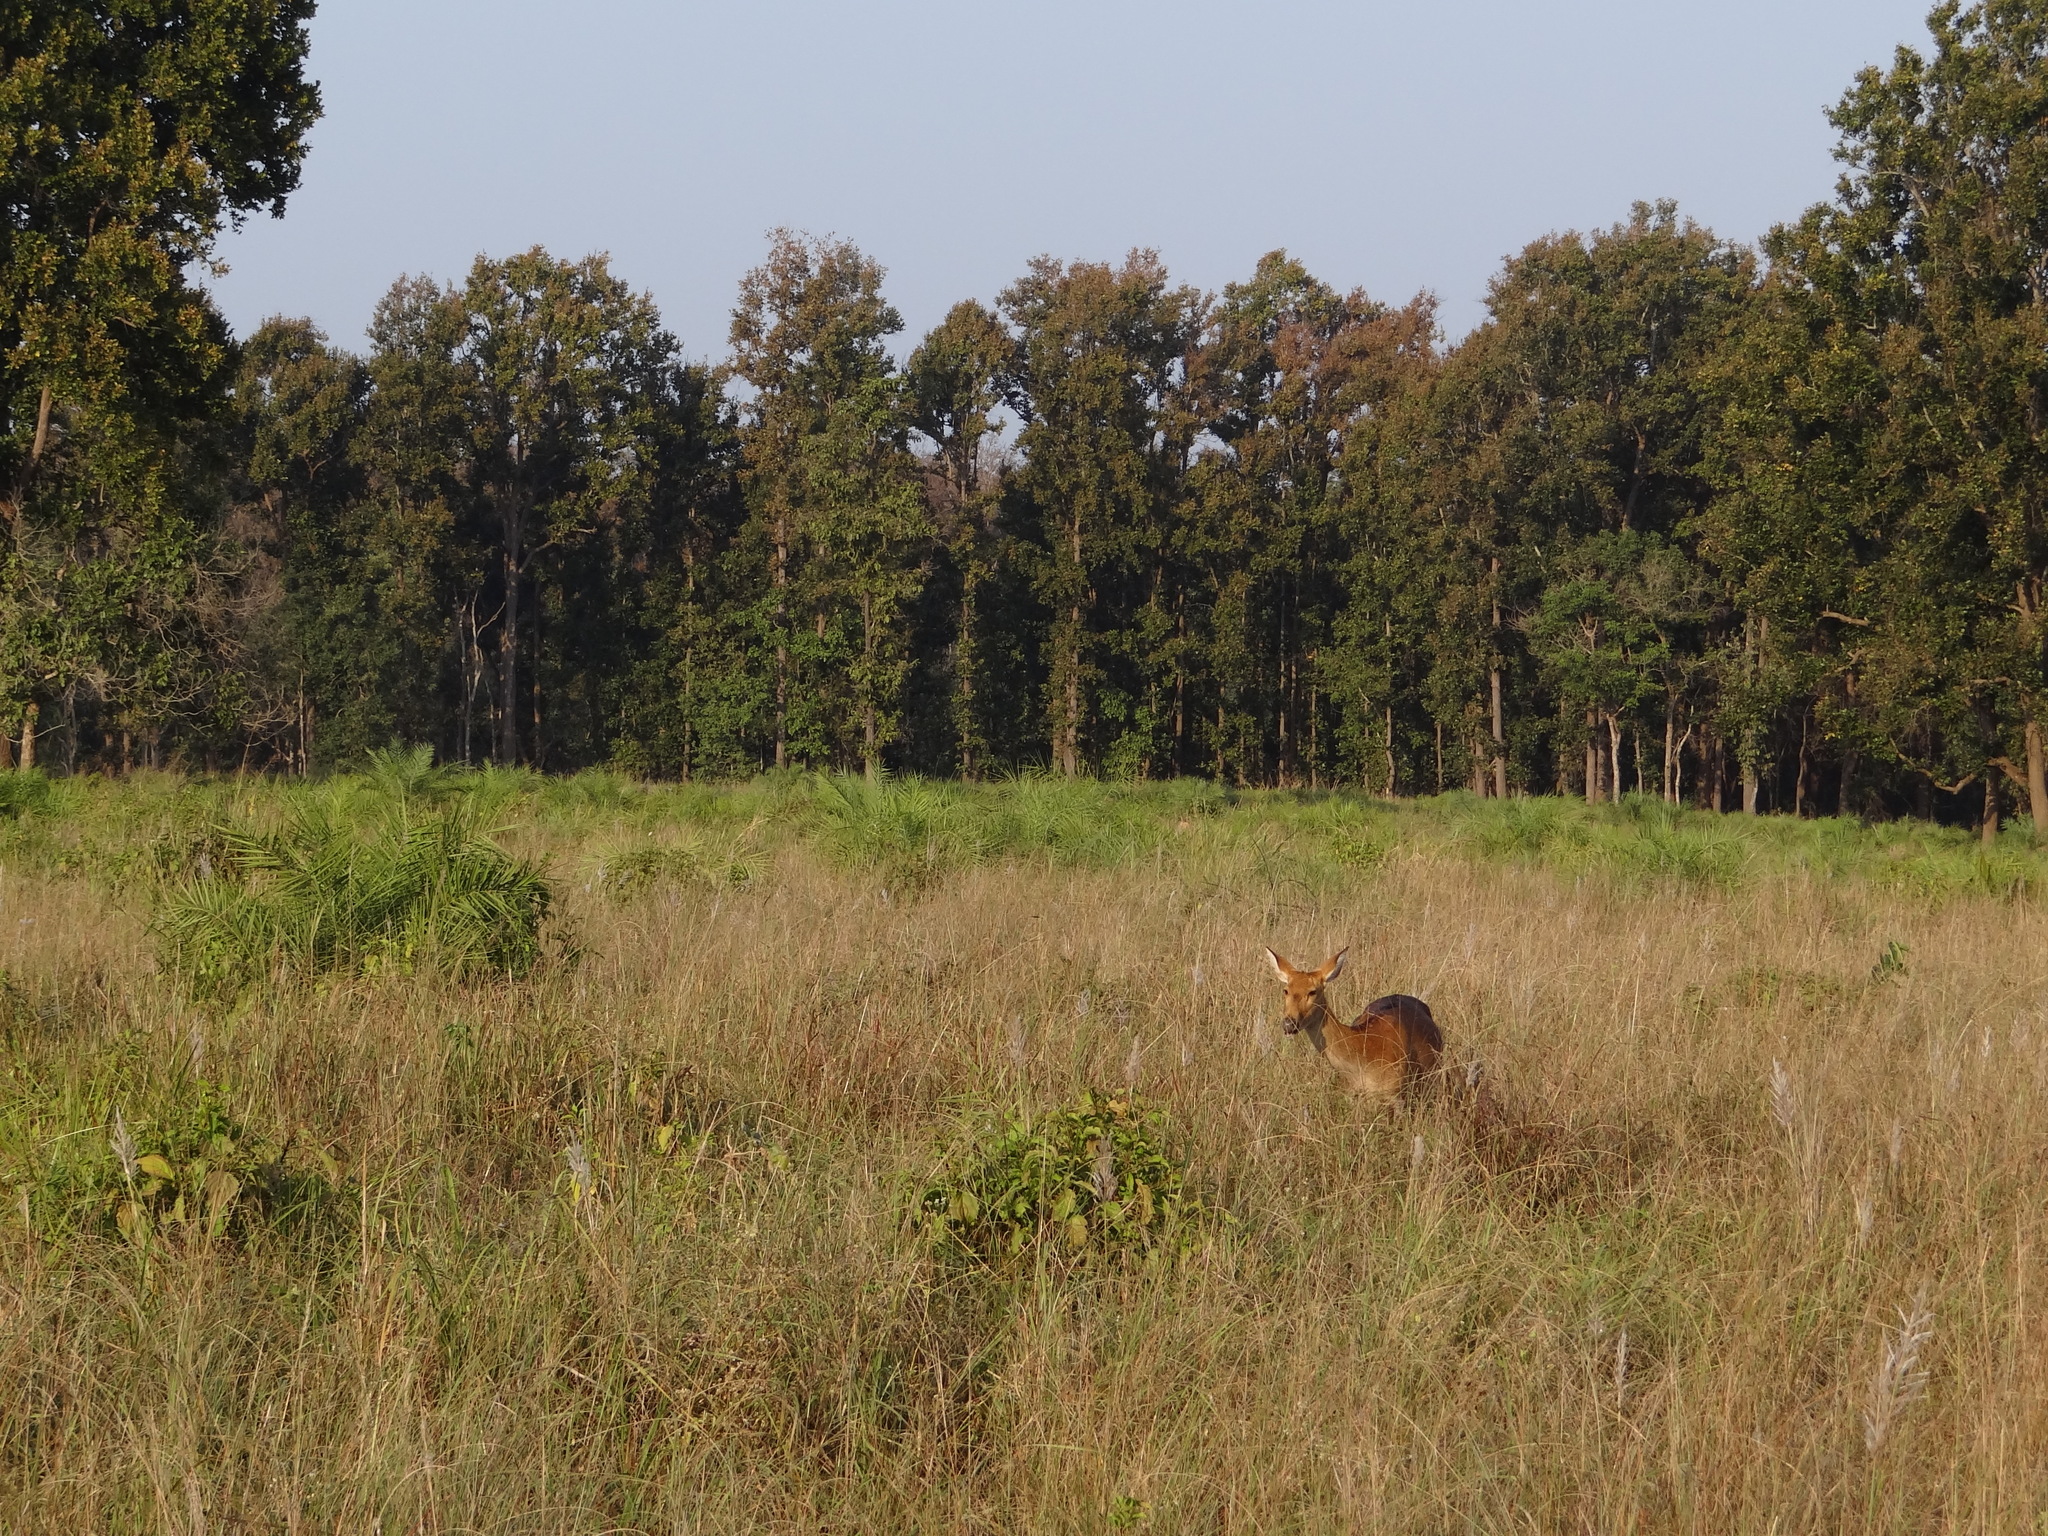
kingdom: Animalia
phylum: Chordata
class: Mammalia
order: Artiodactyla
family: Cervidae
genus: Rucervus
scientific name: Rucervus duvaucelii
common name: Barasingha
